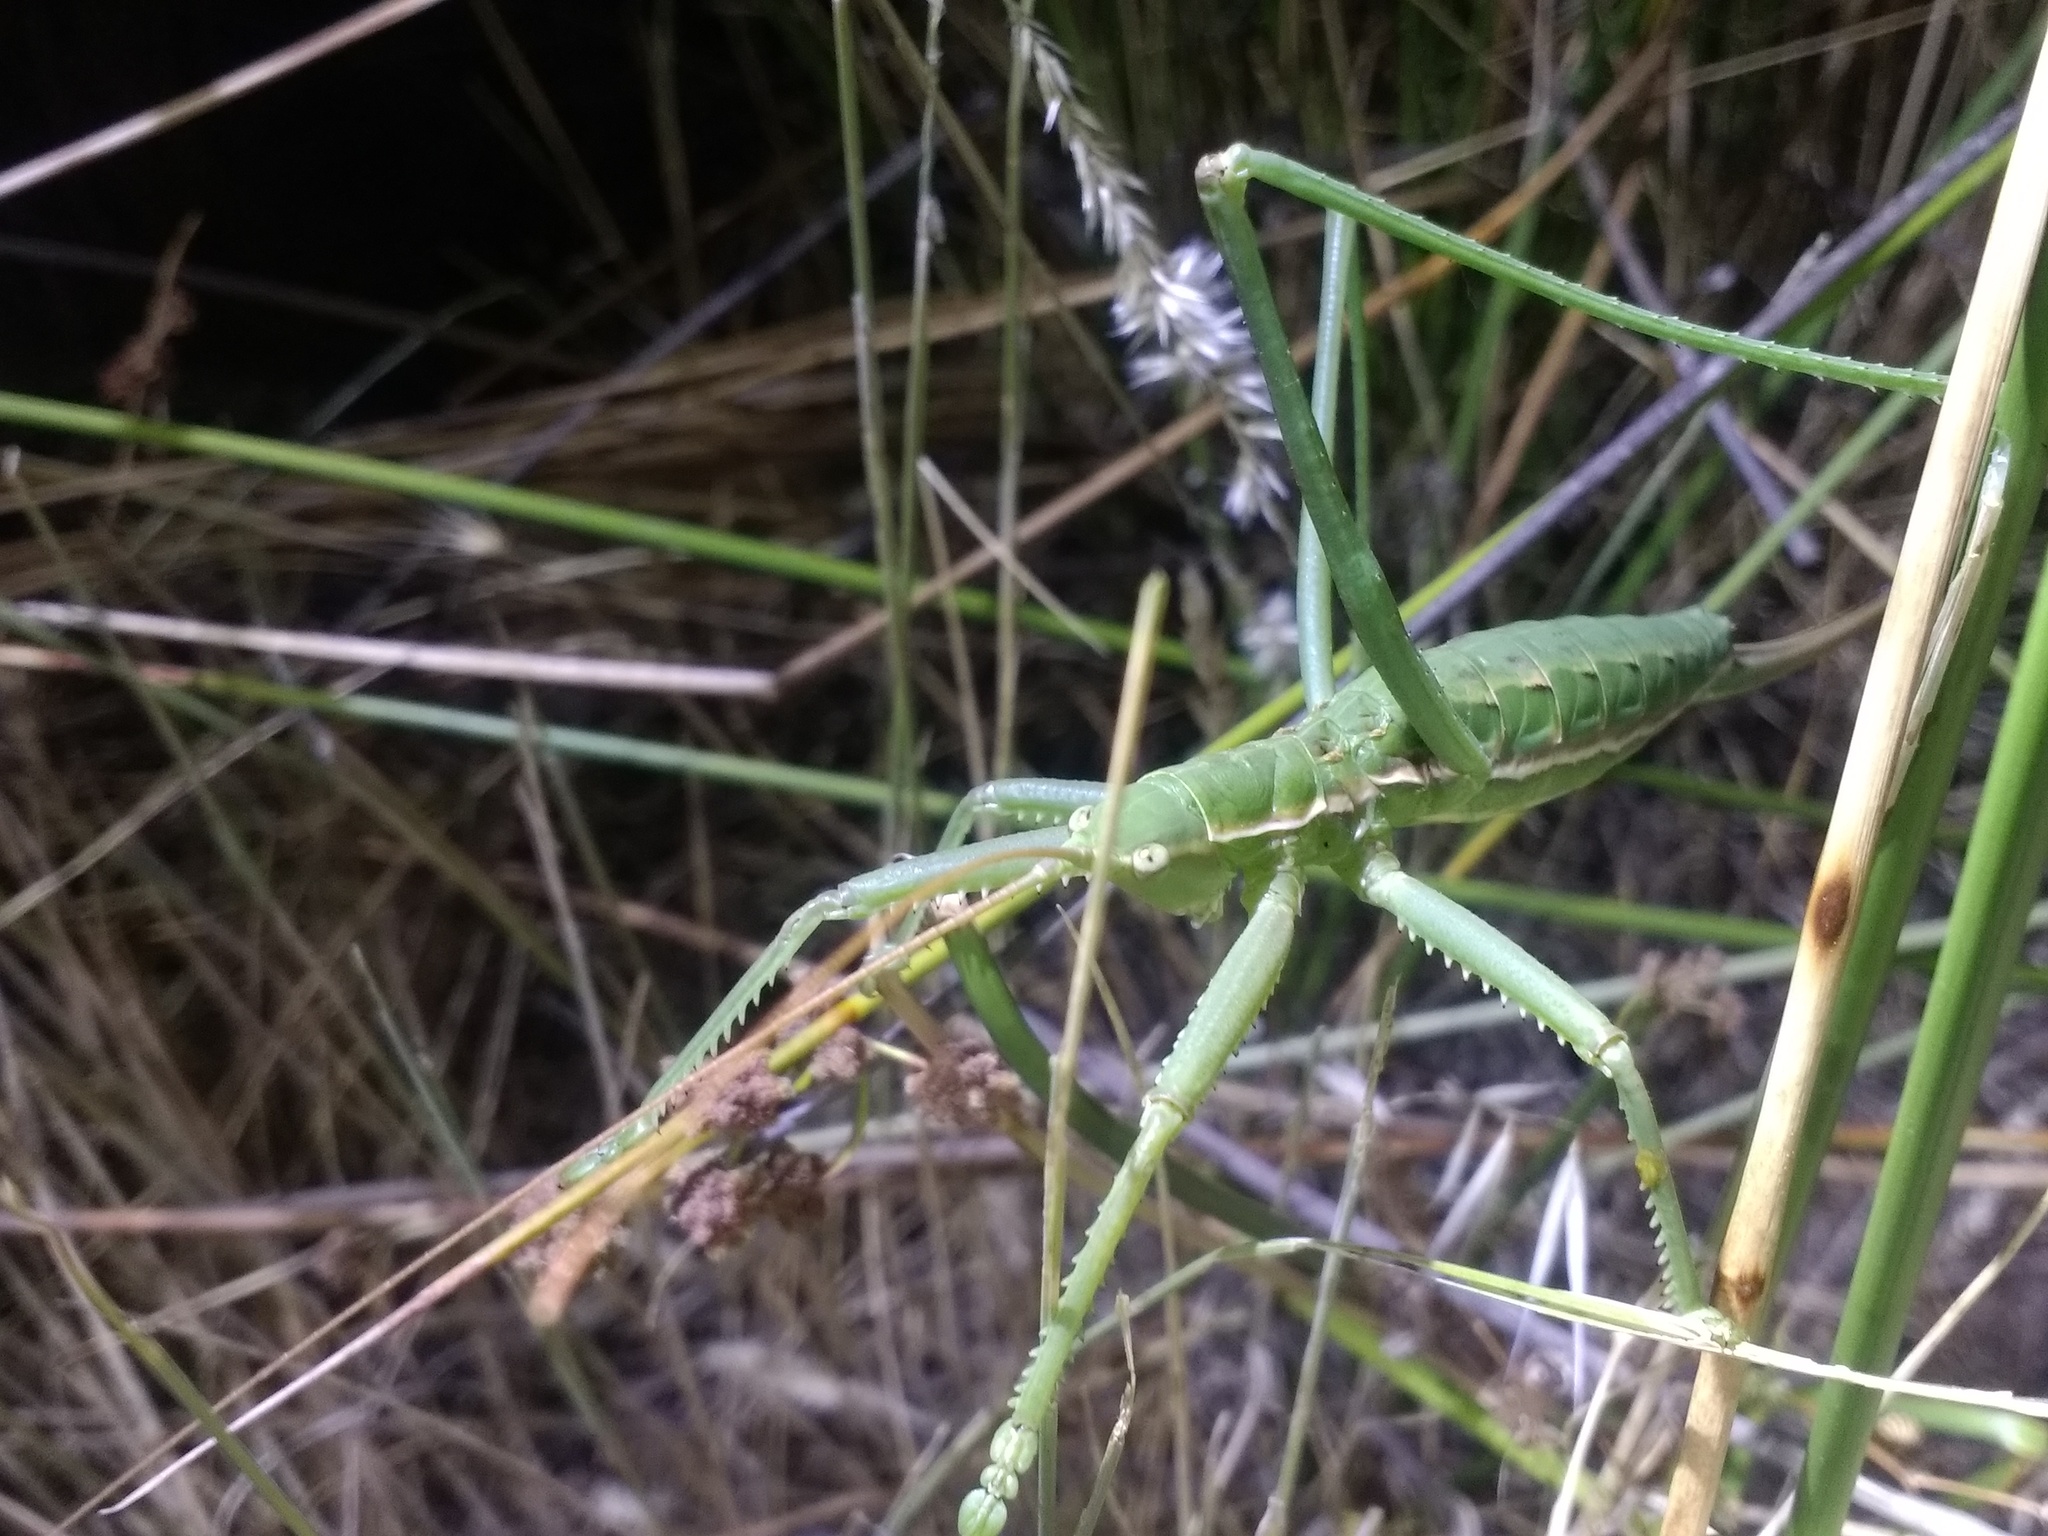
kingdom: Animalia
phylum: Arthropoda
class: Insecta
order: Orthoptera
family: Tettigoniidae
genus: Saga
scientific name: Saga pedo
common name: Common predatory bush-cricket
